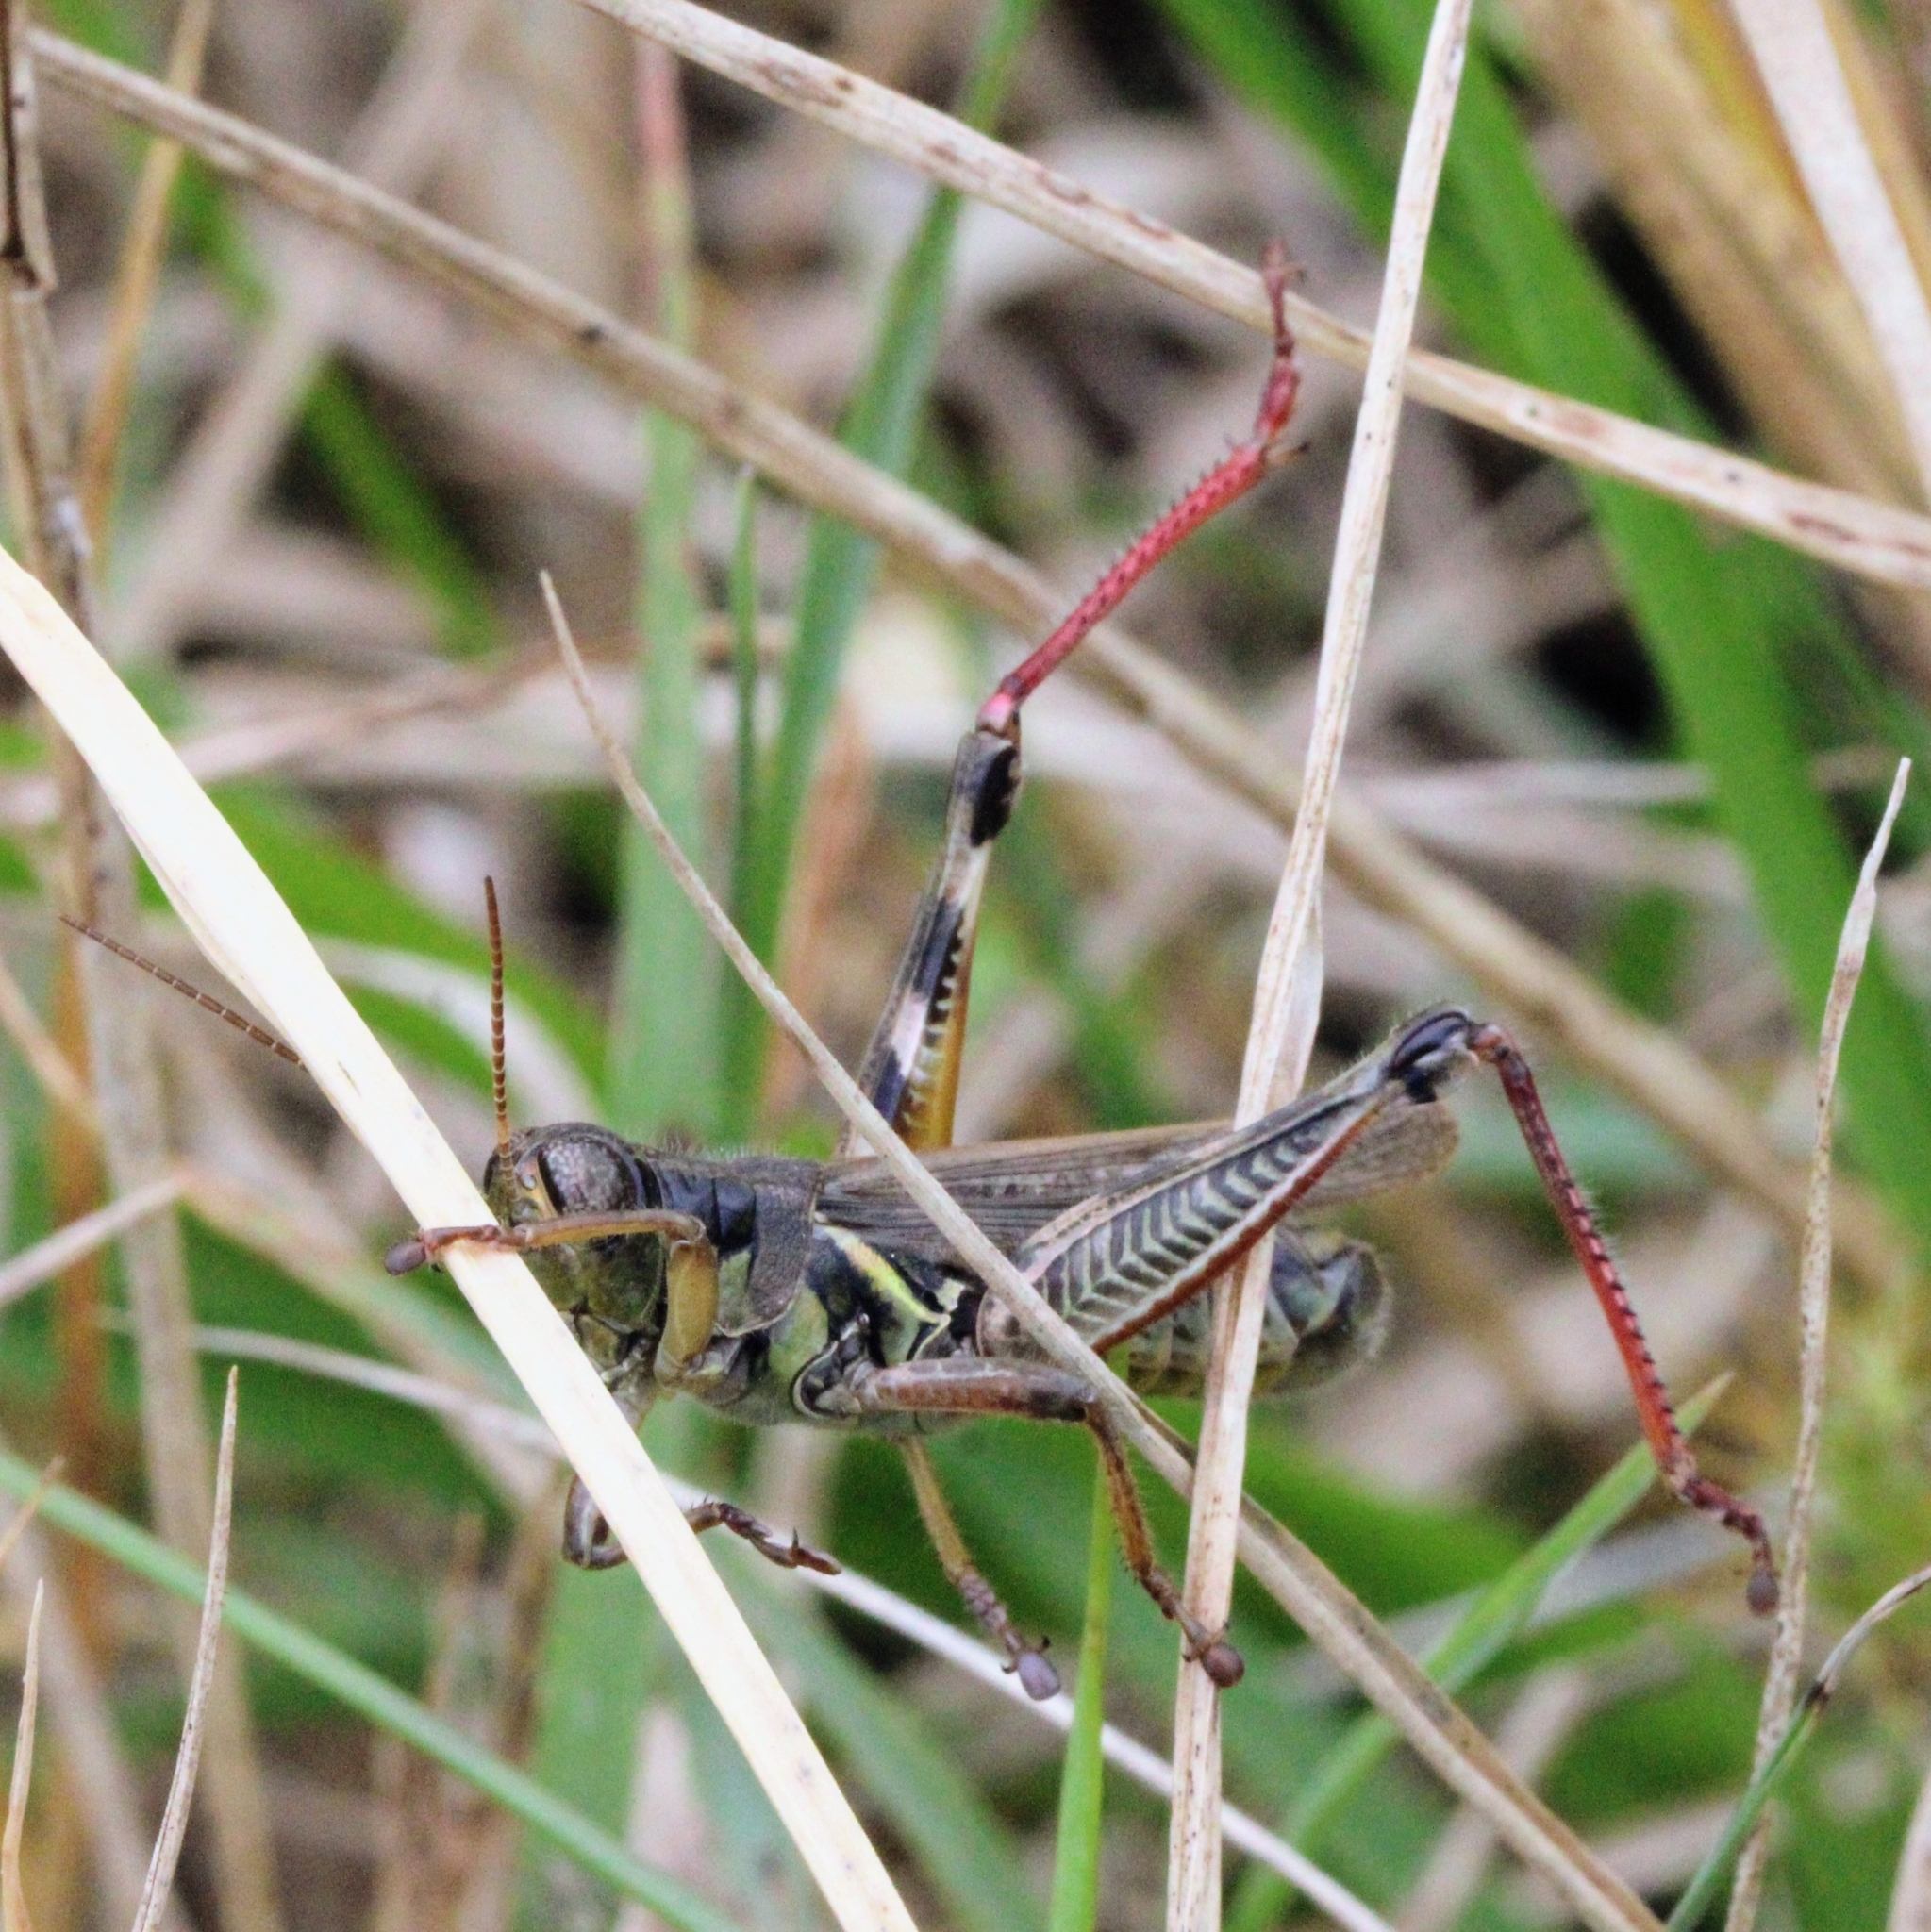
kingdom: Animalia
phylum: Arthropoda
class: Insecta
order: Orthoptera
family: Acrididae
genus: Melanoplus
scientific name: Melanoplus femurrubrum
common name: Red-legged grasshopper
